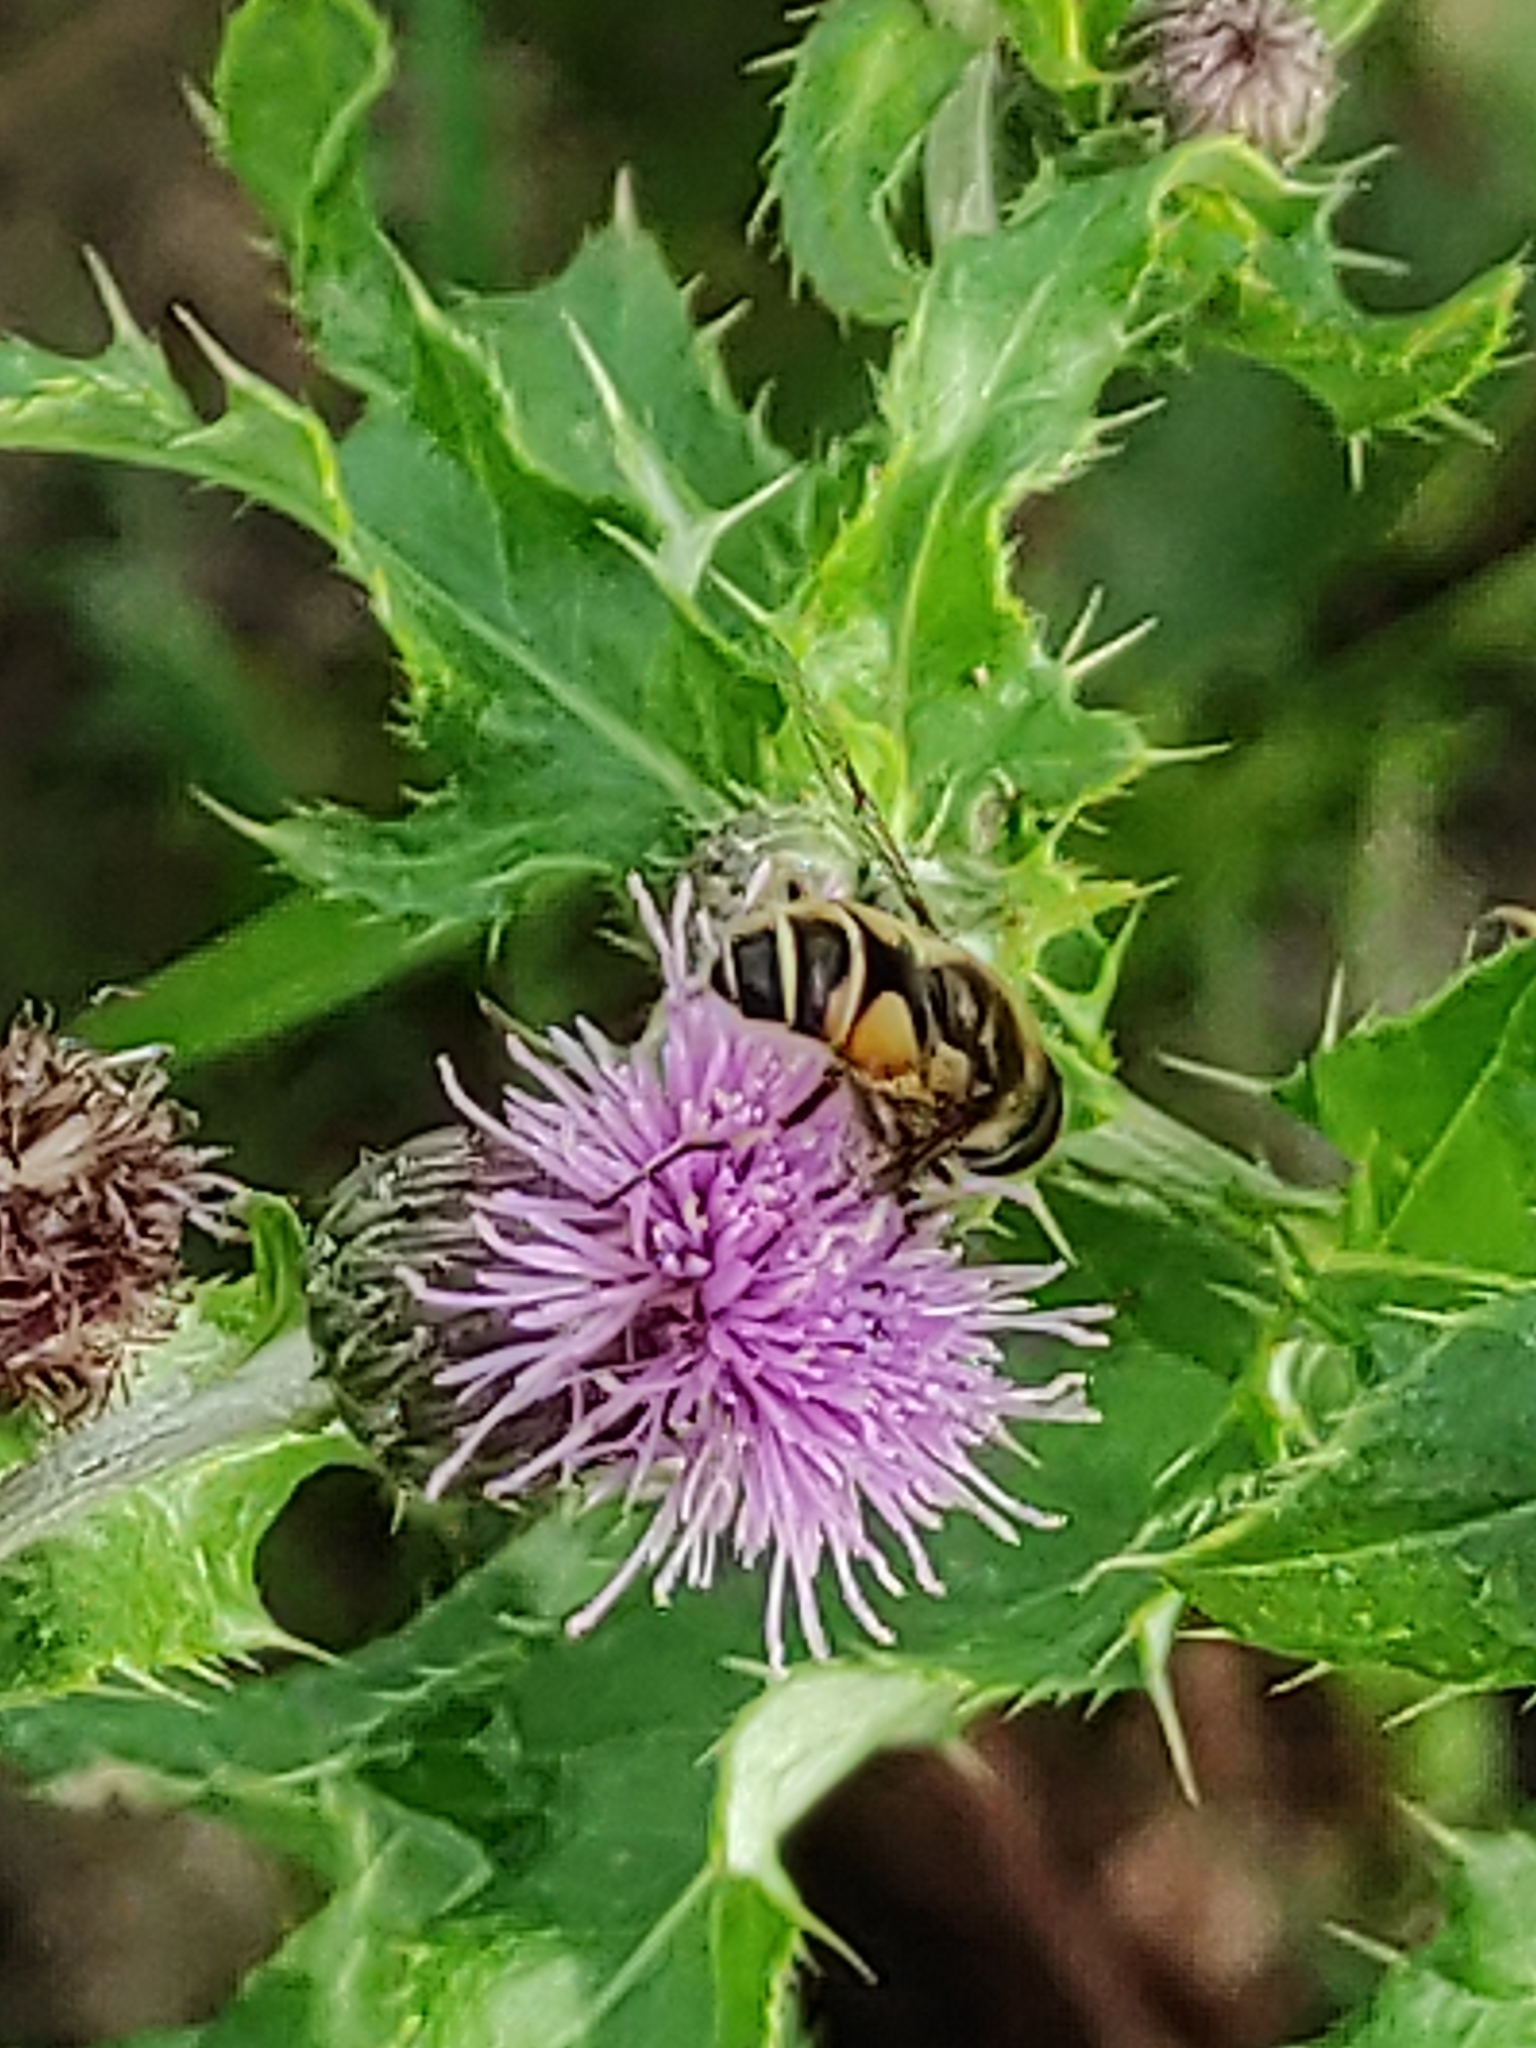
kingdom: Animalia
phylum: Arthropoda
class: Insecta
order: Diptera
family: Syrphidae
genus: Myathropa
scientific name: Myathropa florea
